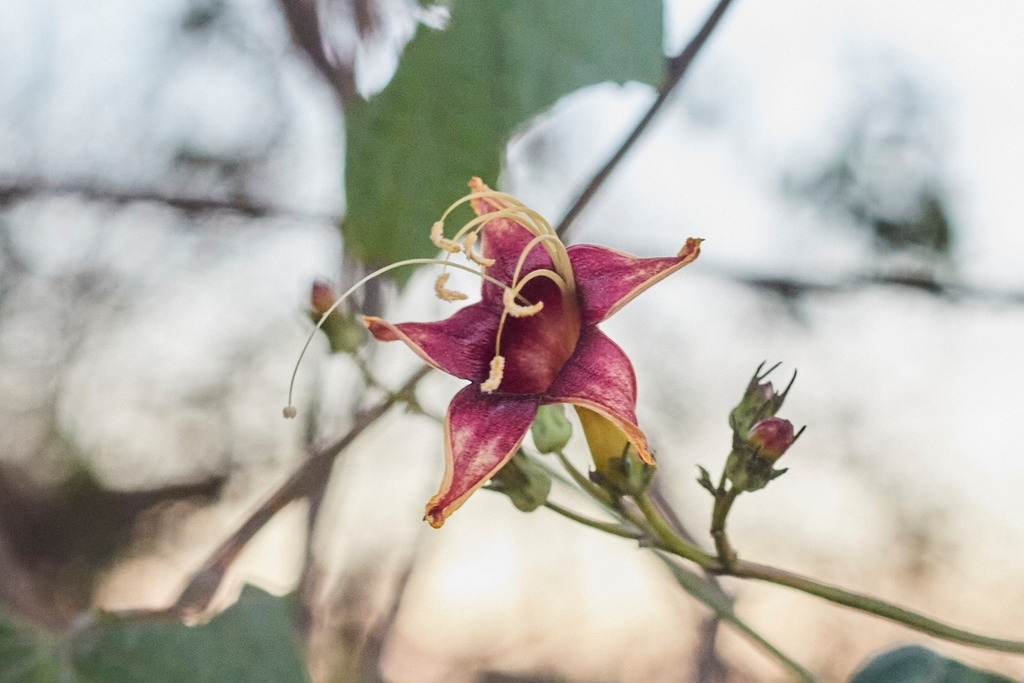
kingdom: Plantae
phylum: Tracheophyta
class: Magnoliopsida
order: Solanales
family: Convolvulaceae
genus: Ipomoea
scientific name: Ipomoea neei
